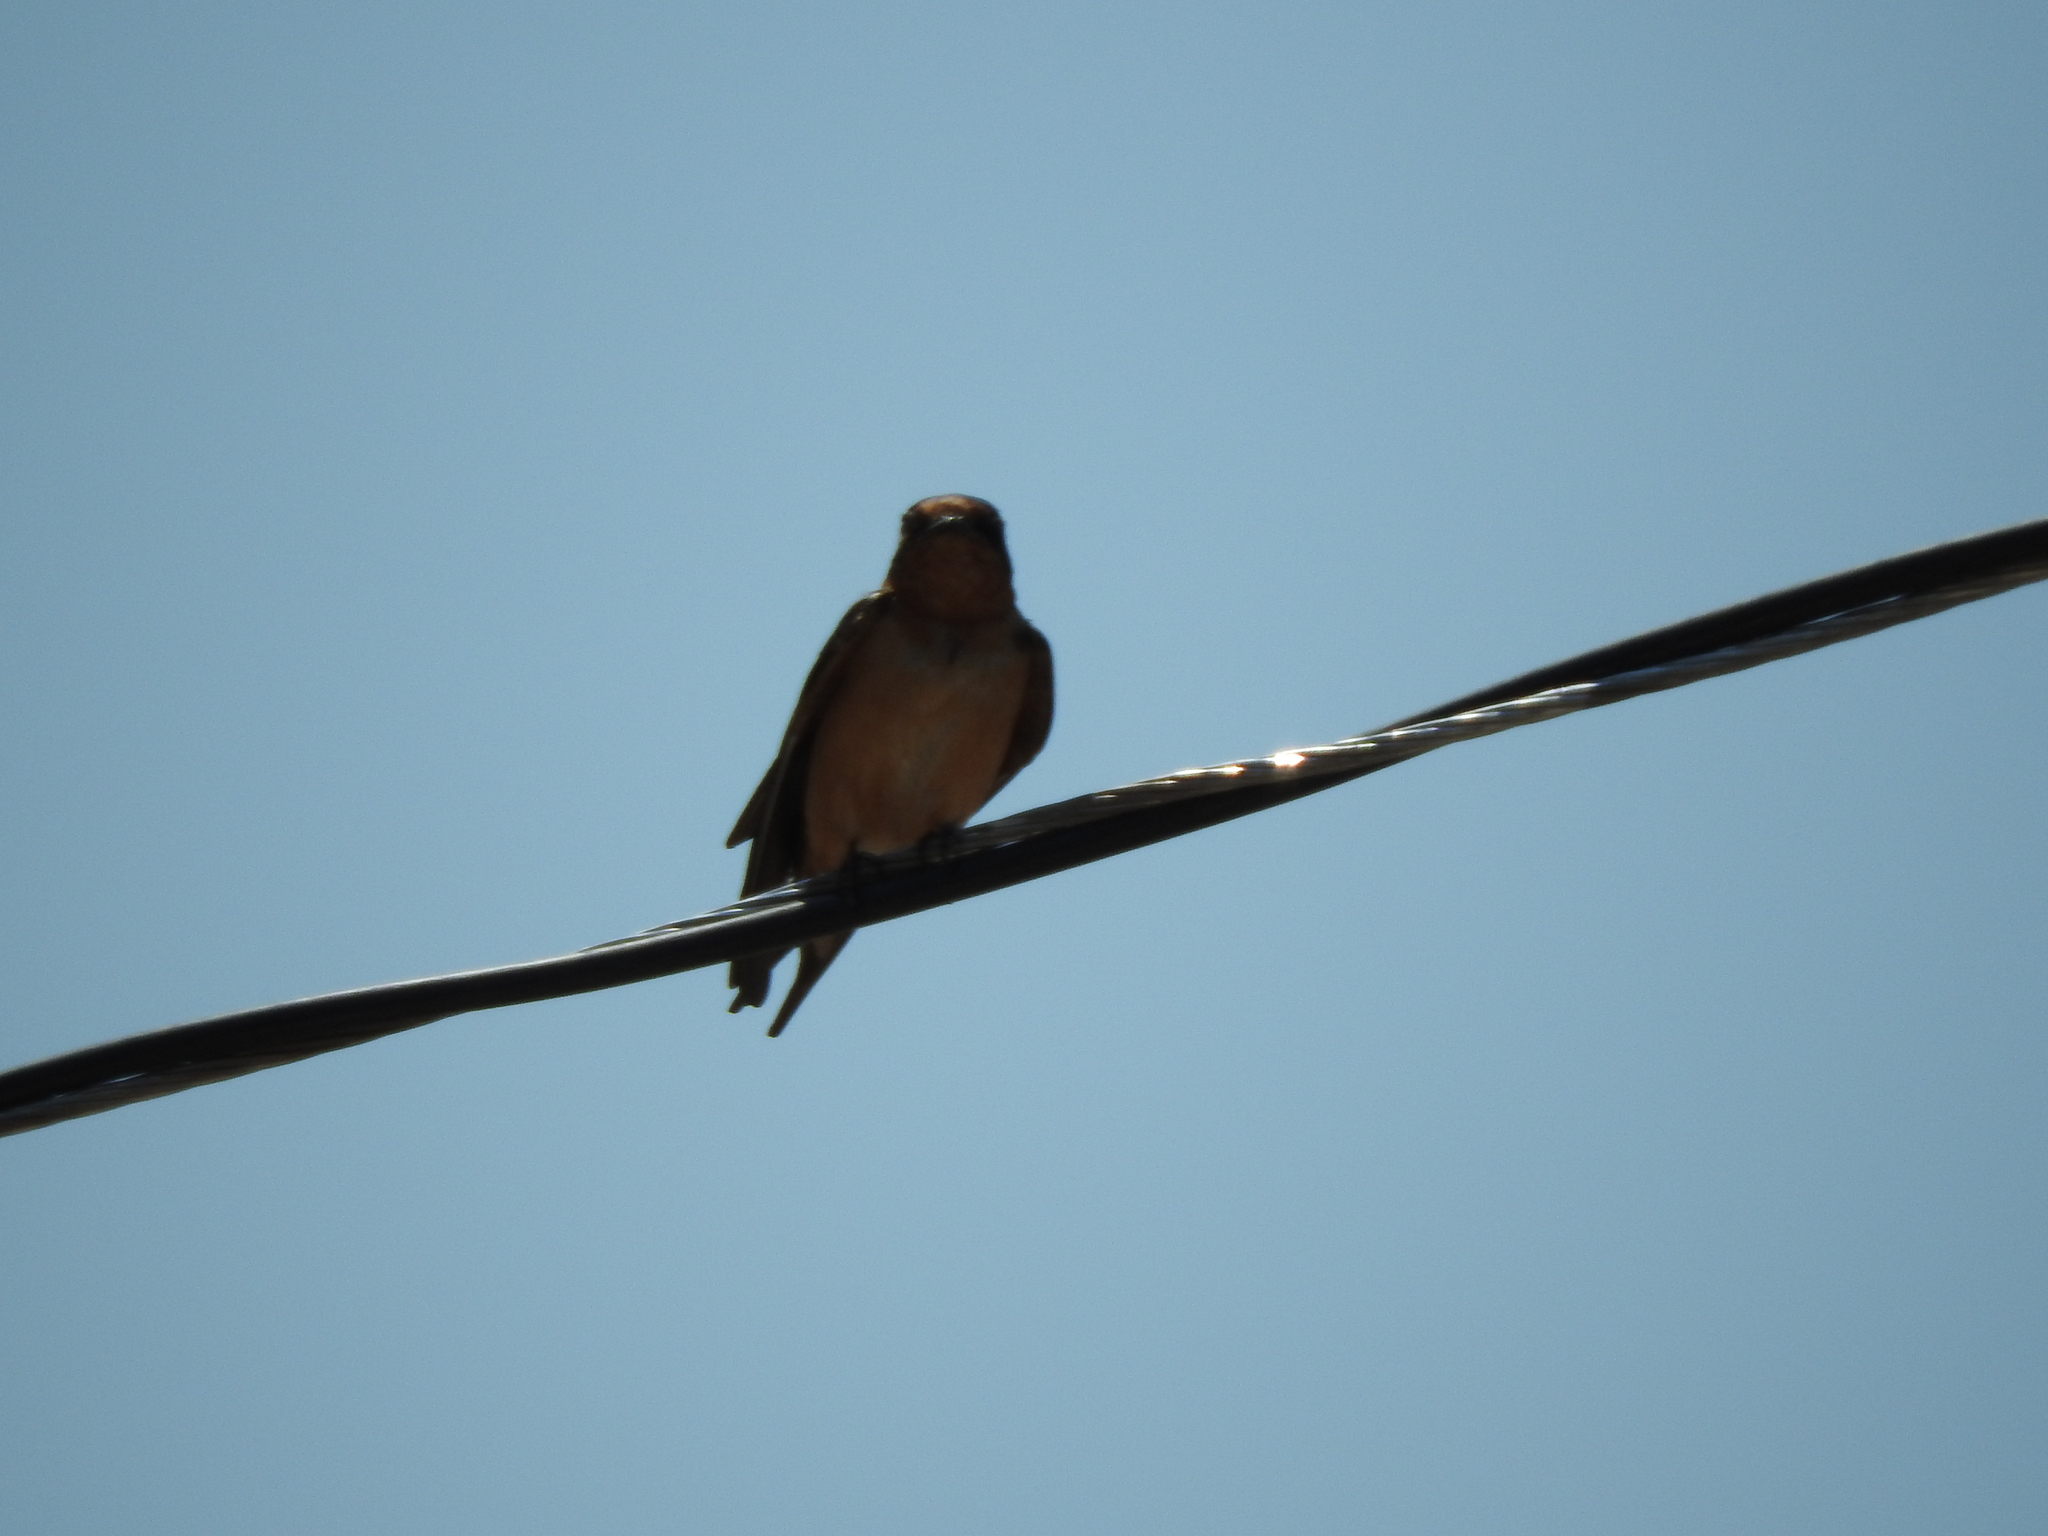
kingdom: Animalia
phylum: Chordata
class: Aves
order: Passeriformes
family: Hirundinidae
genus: Hirundo
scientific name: Hirundo rustica
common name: Barn swallow
